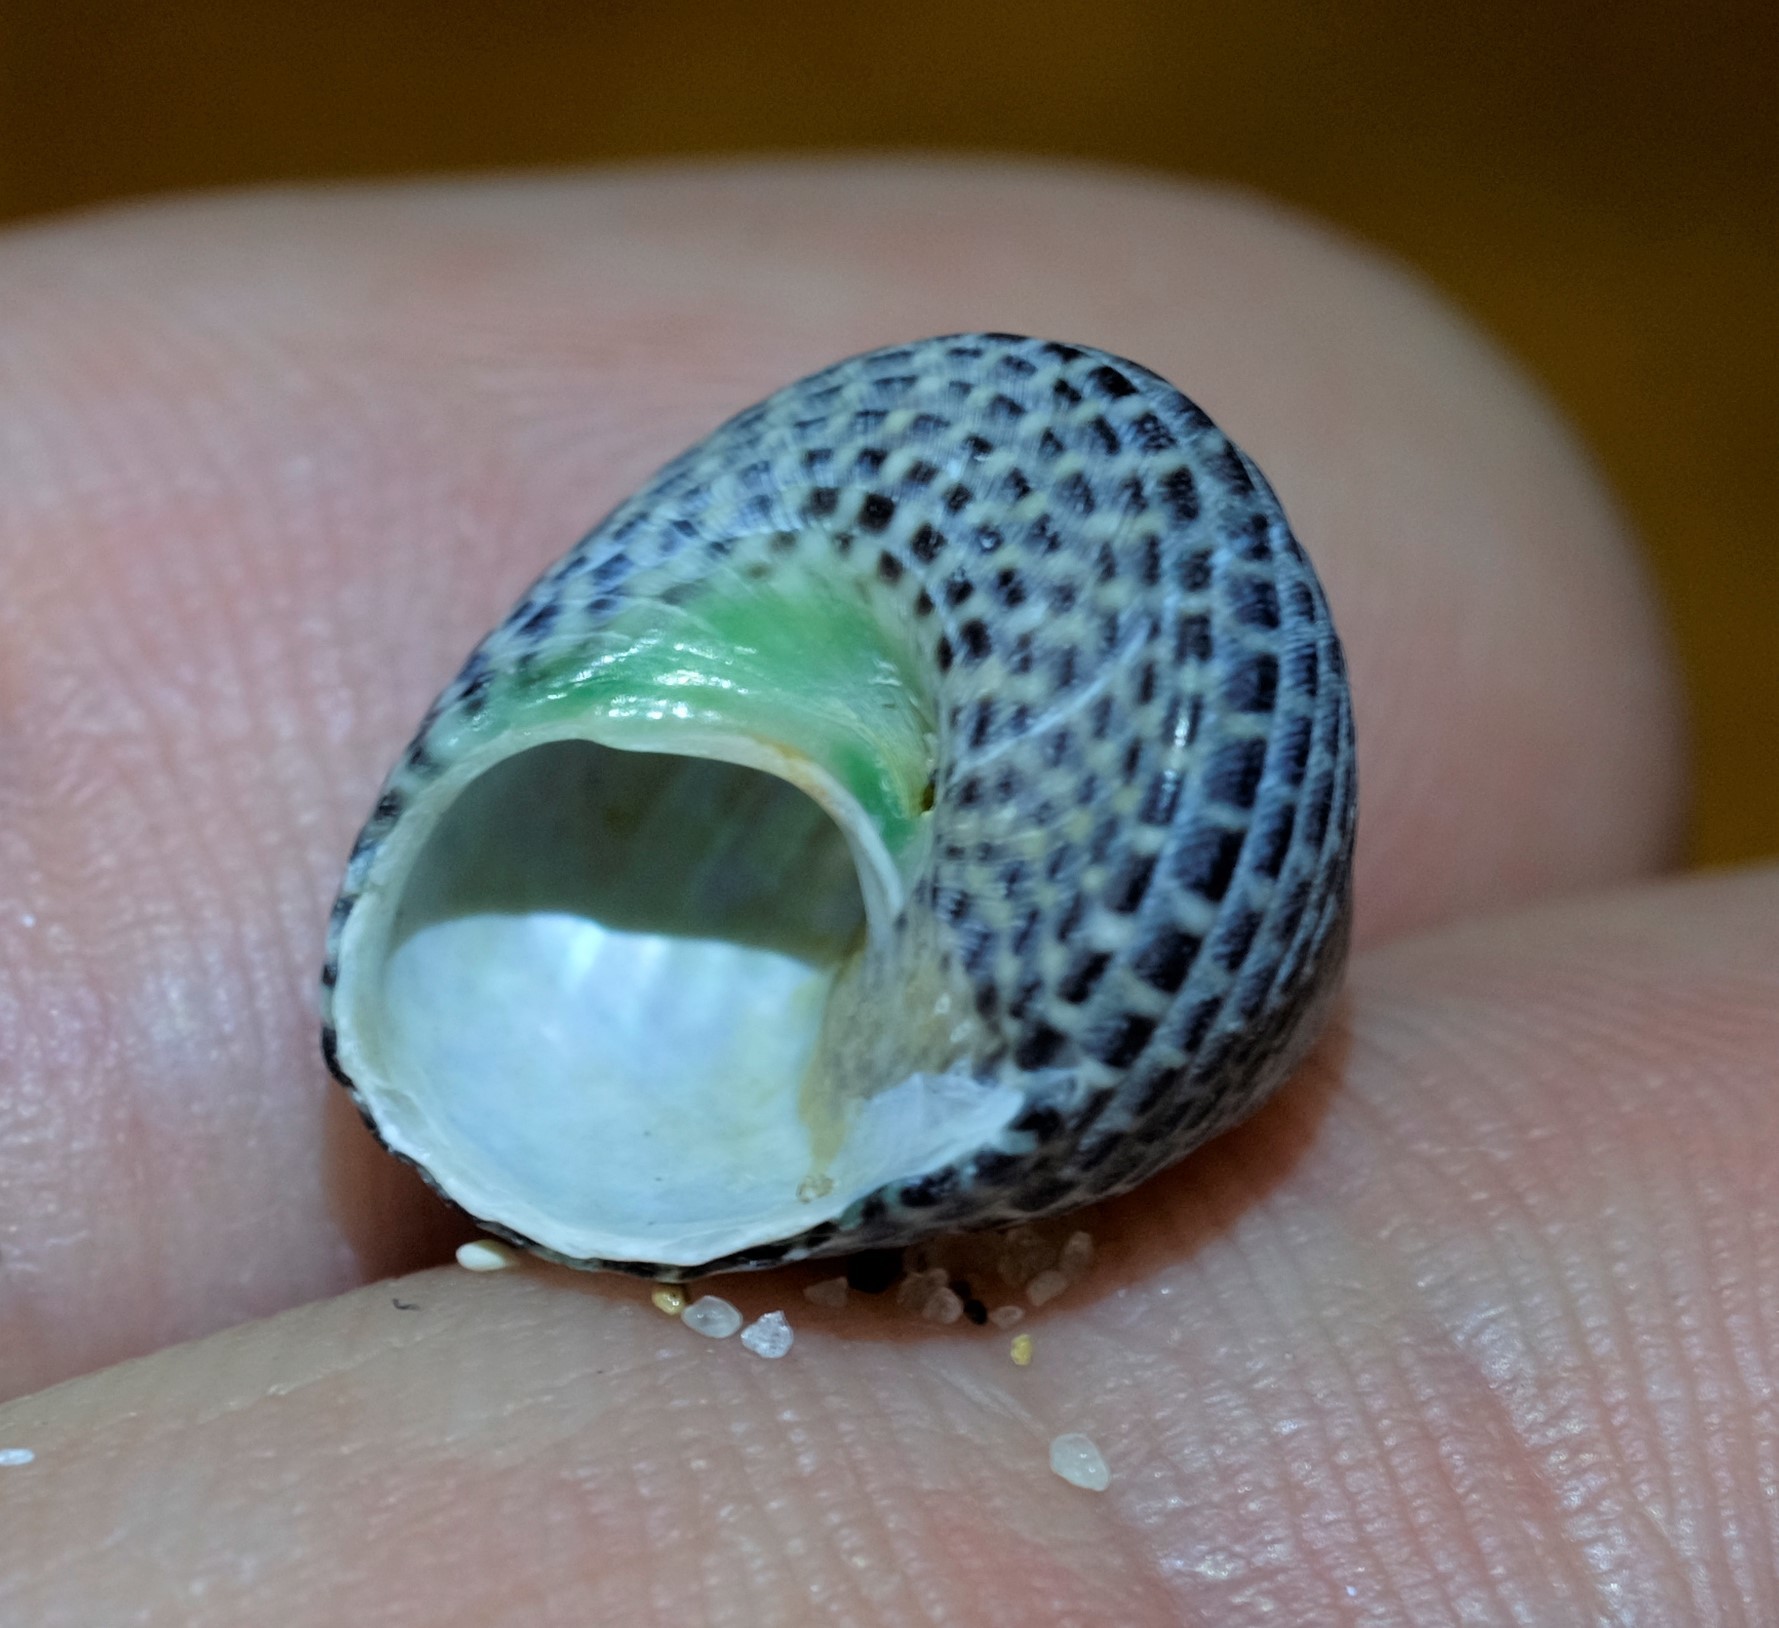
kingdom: Animalia
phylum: Mollusca
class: Gastropoda
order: Trochida
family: Trochidae
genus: Chlorodiloma
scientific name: Chlorodiloma adelaidae
